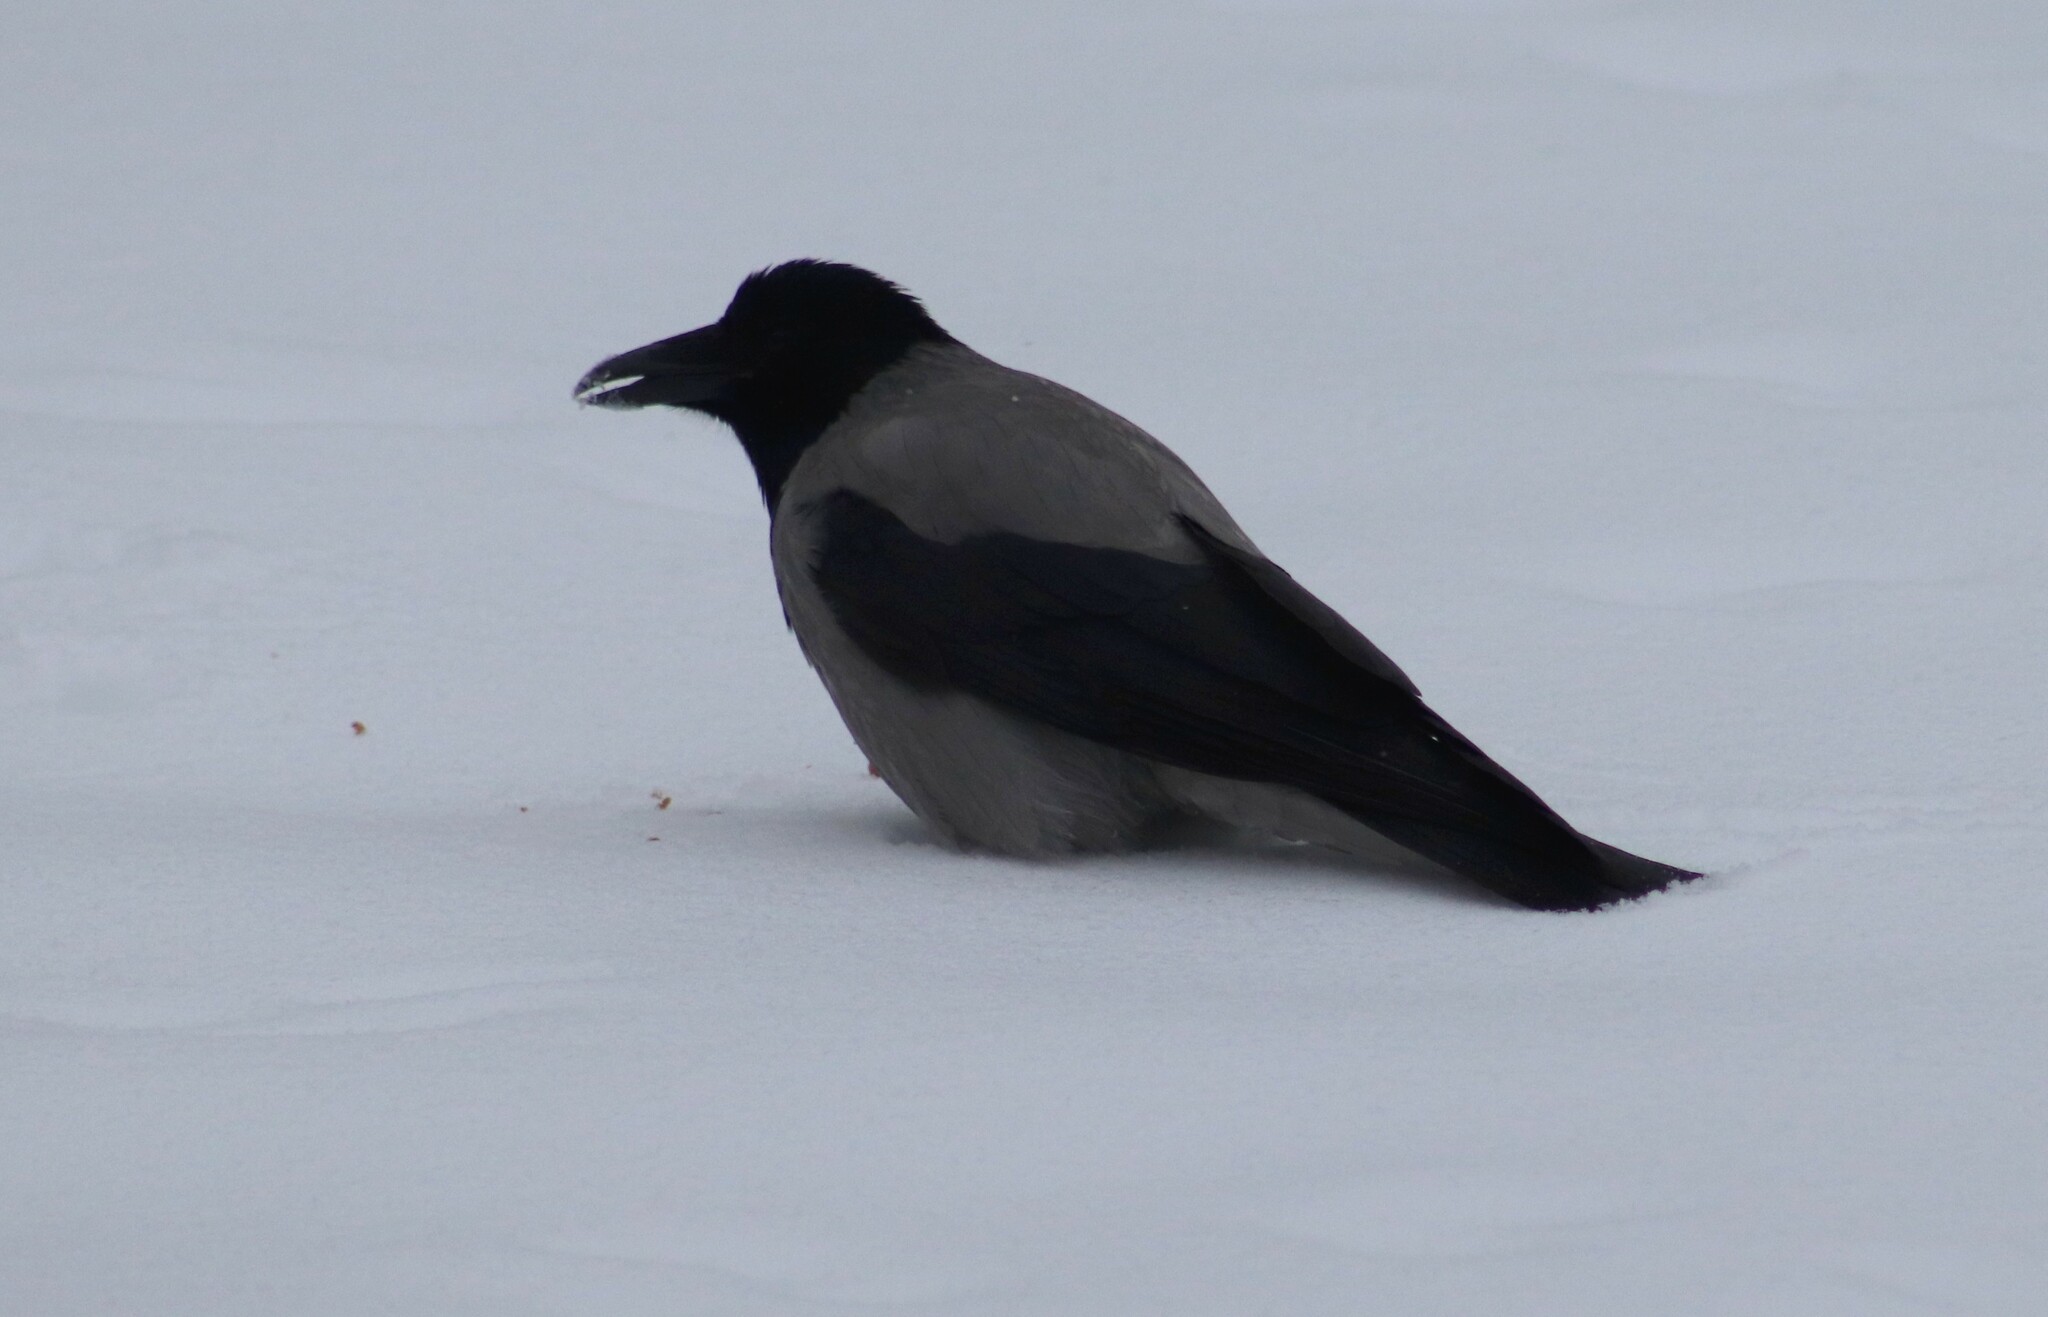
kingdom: Animalia
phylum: Chordata
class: Aves
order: Passeriformes
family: Corvidae
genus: Corvus
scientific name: Corvus cornix
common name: Hooded crow
